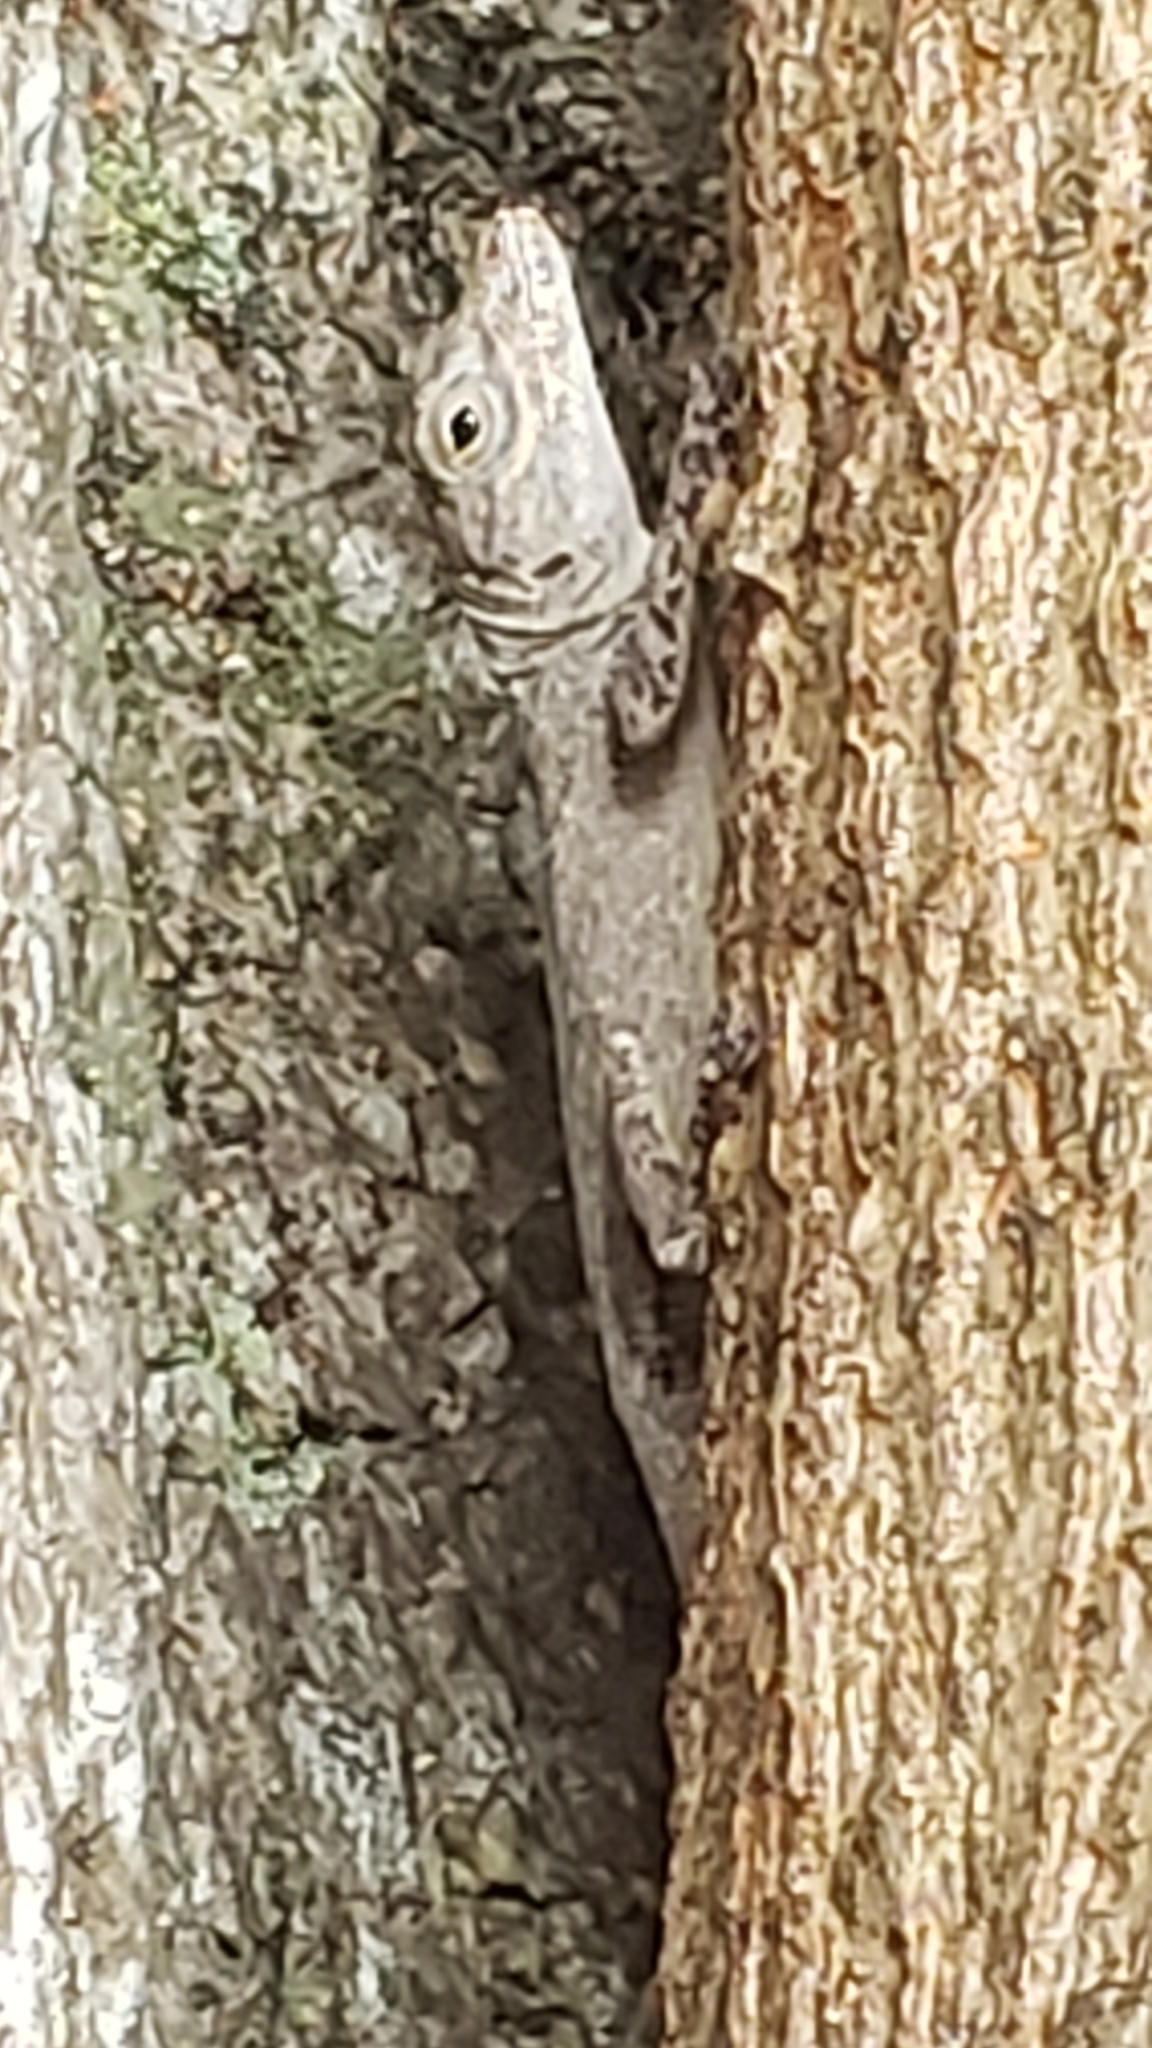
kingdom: Animalia
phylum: Chordata
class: Squamata
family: Dactyloidae
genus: Anolis
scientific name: Anolis distichus
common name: Bark anole
